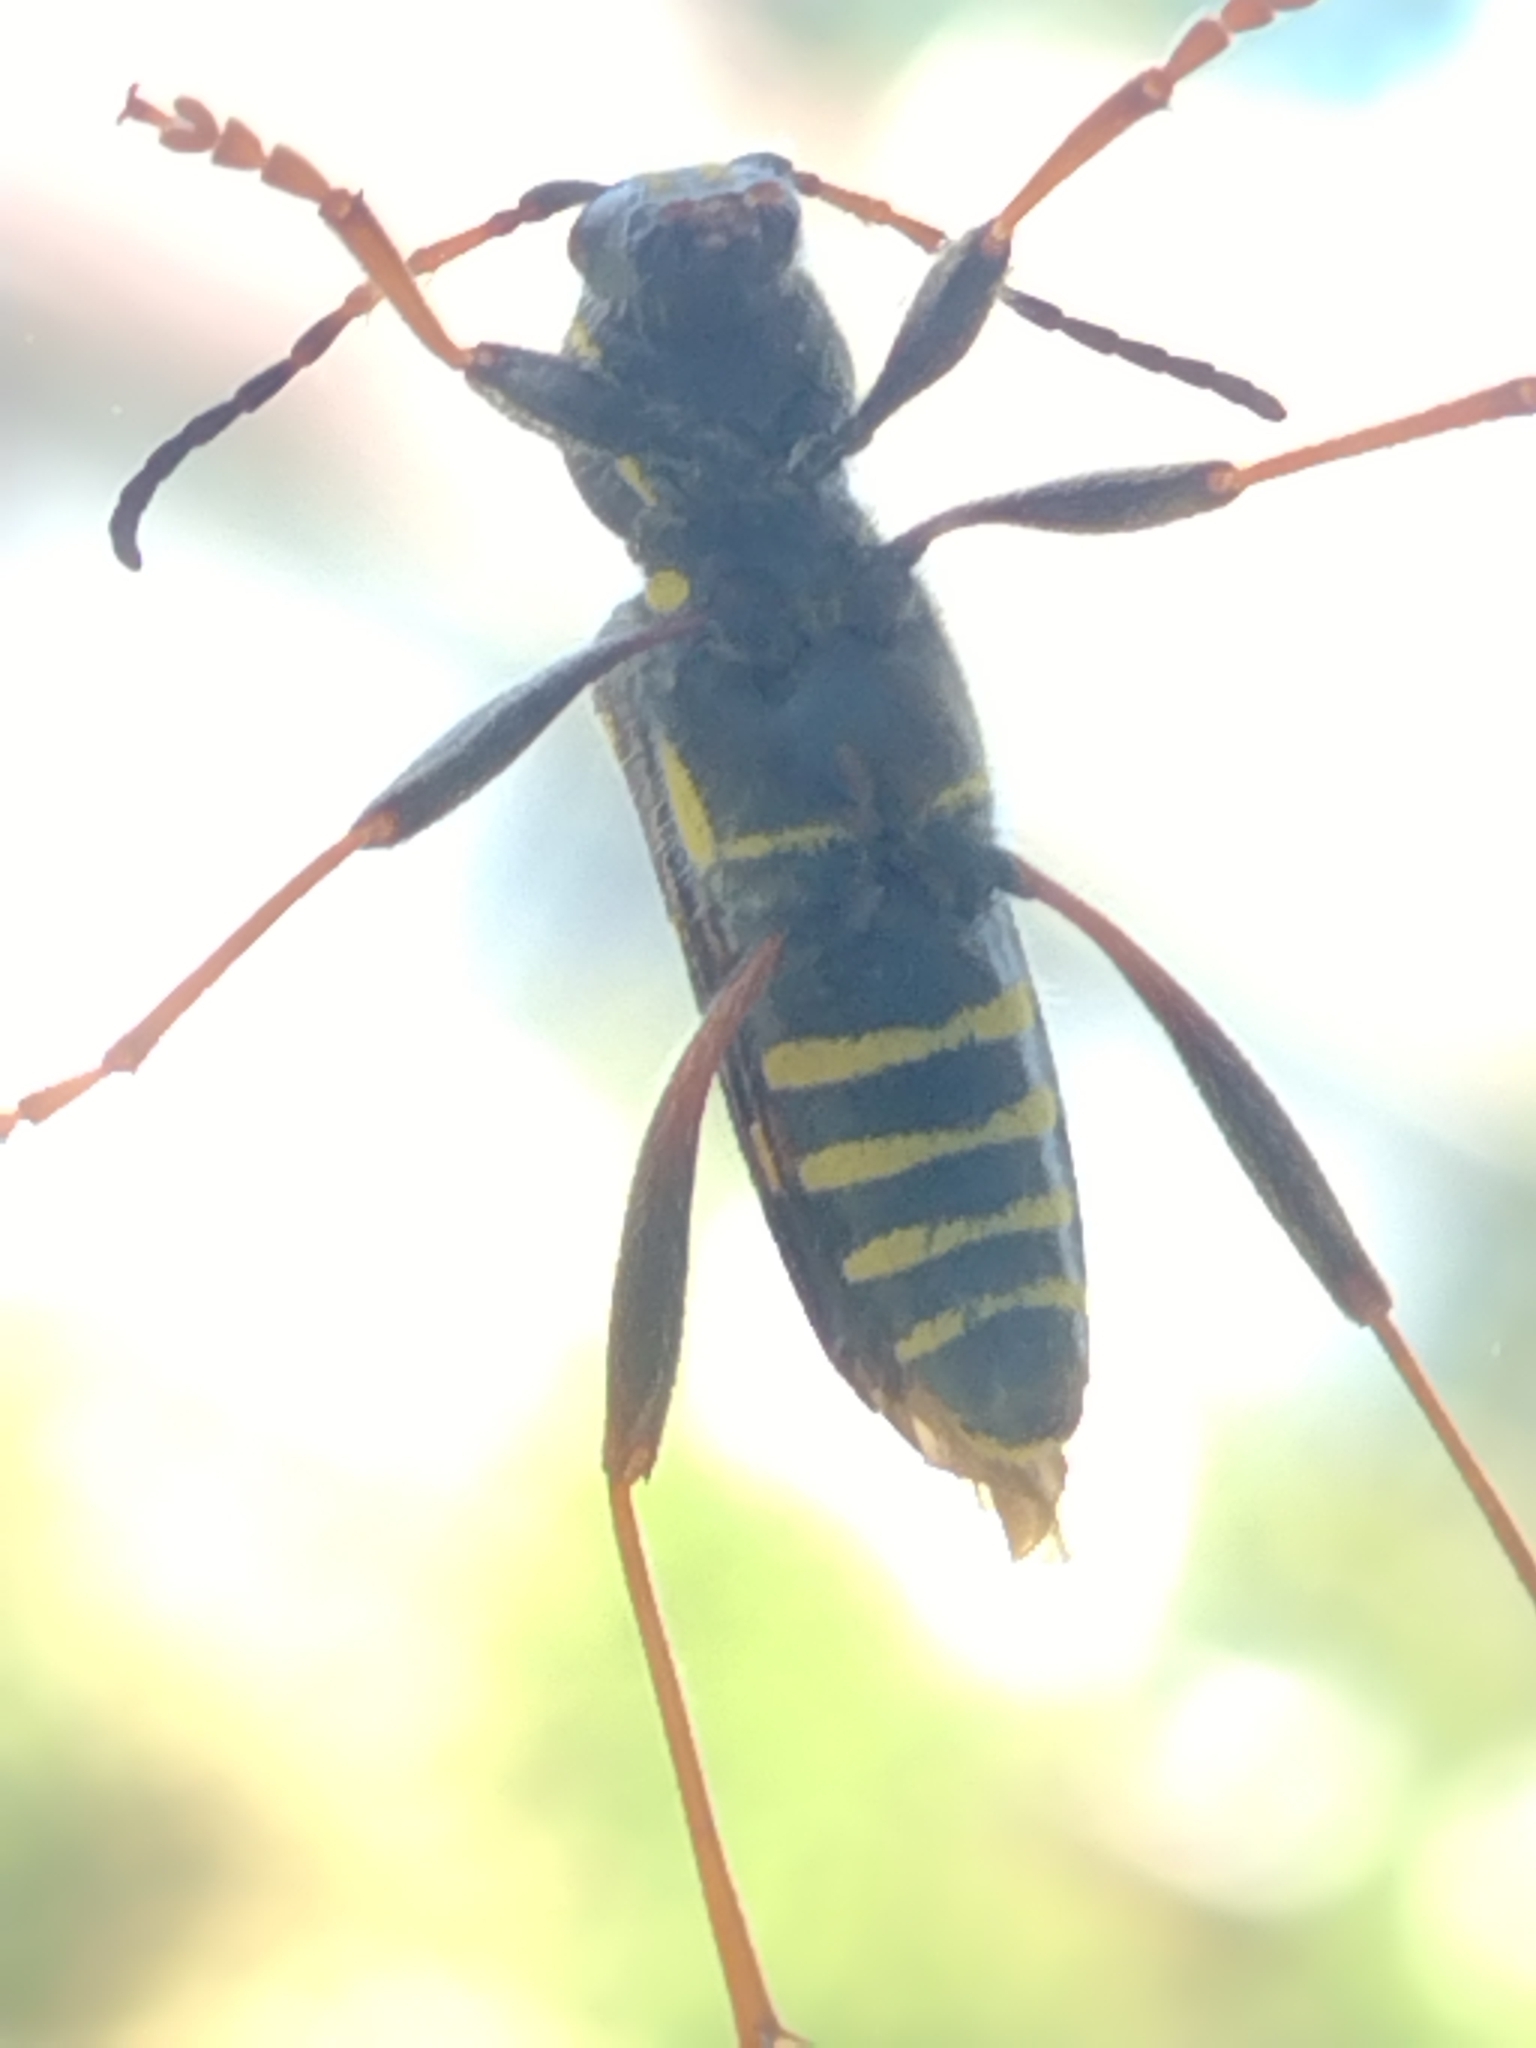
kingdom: Animalia
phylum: Arthropoda
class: Insecta
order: Coleoptera
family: Cerambycidae
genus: Clytus
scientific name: Clytus arietis
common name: Wasp beetle
